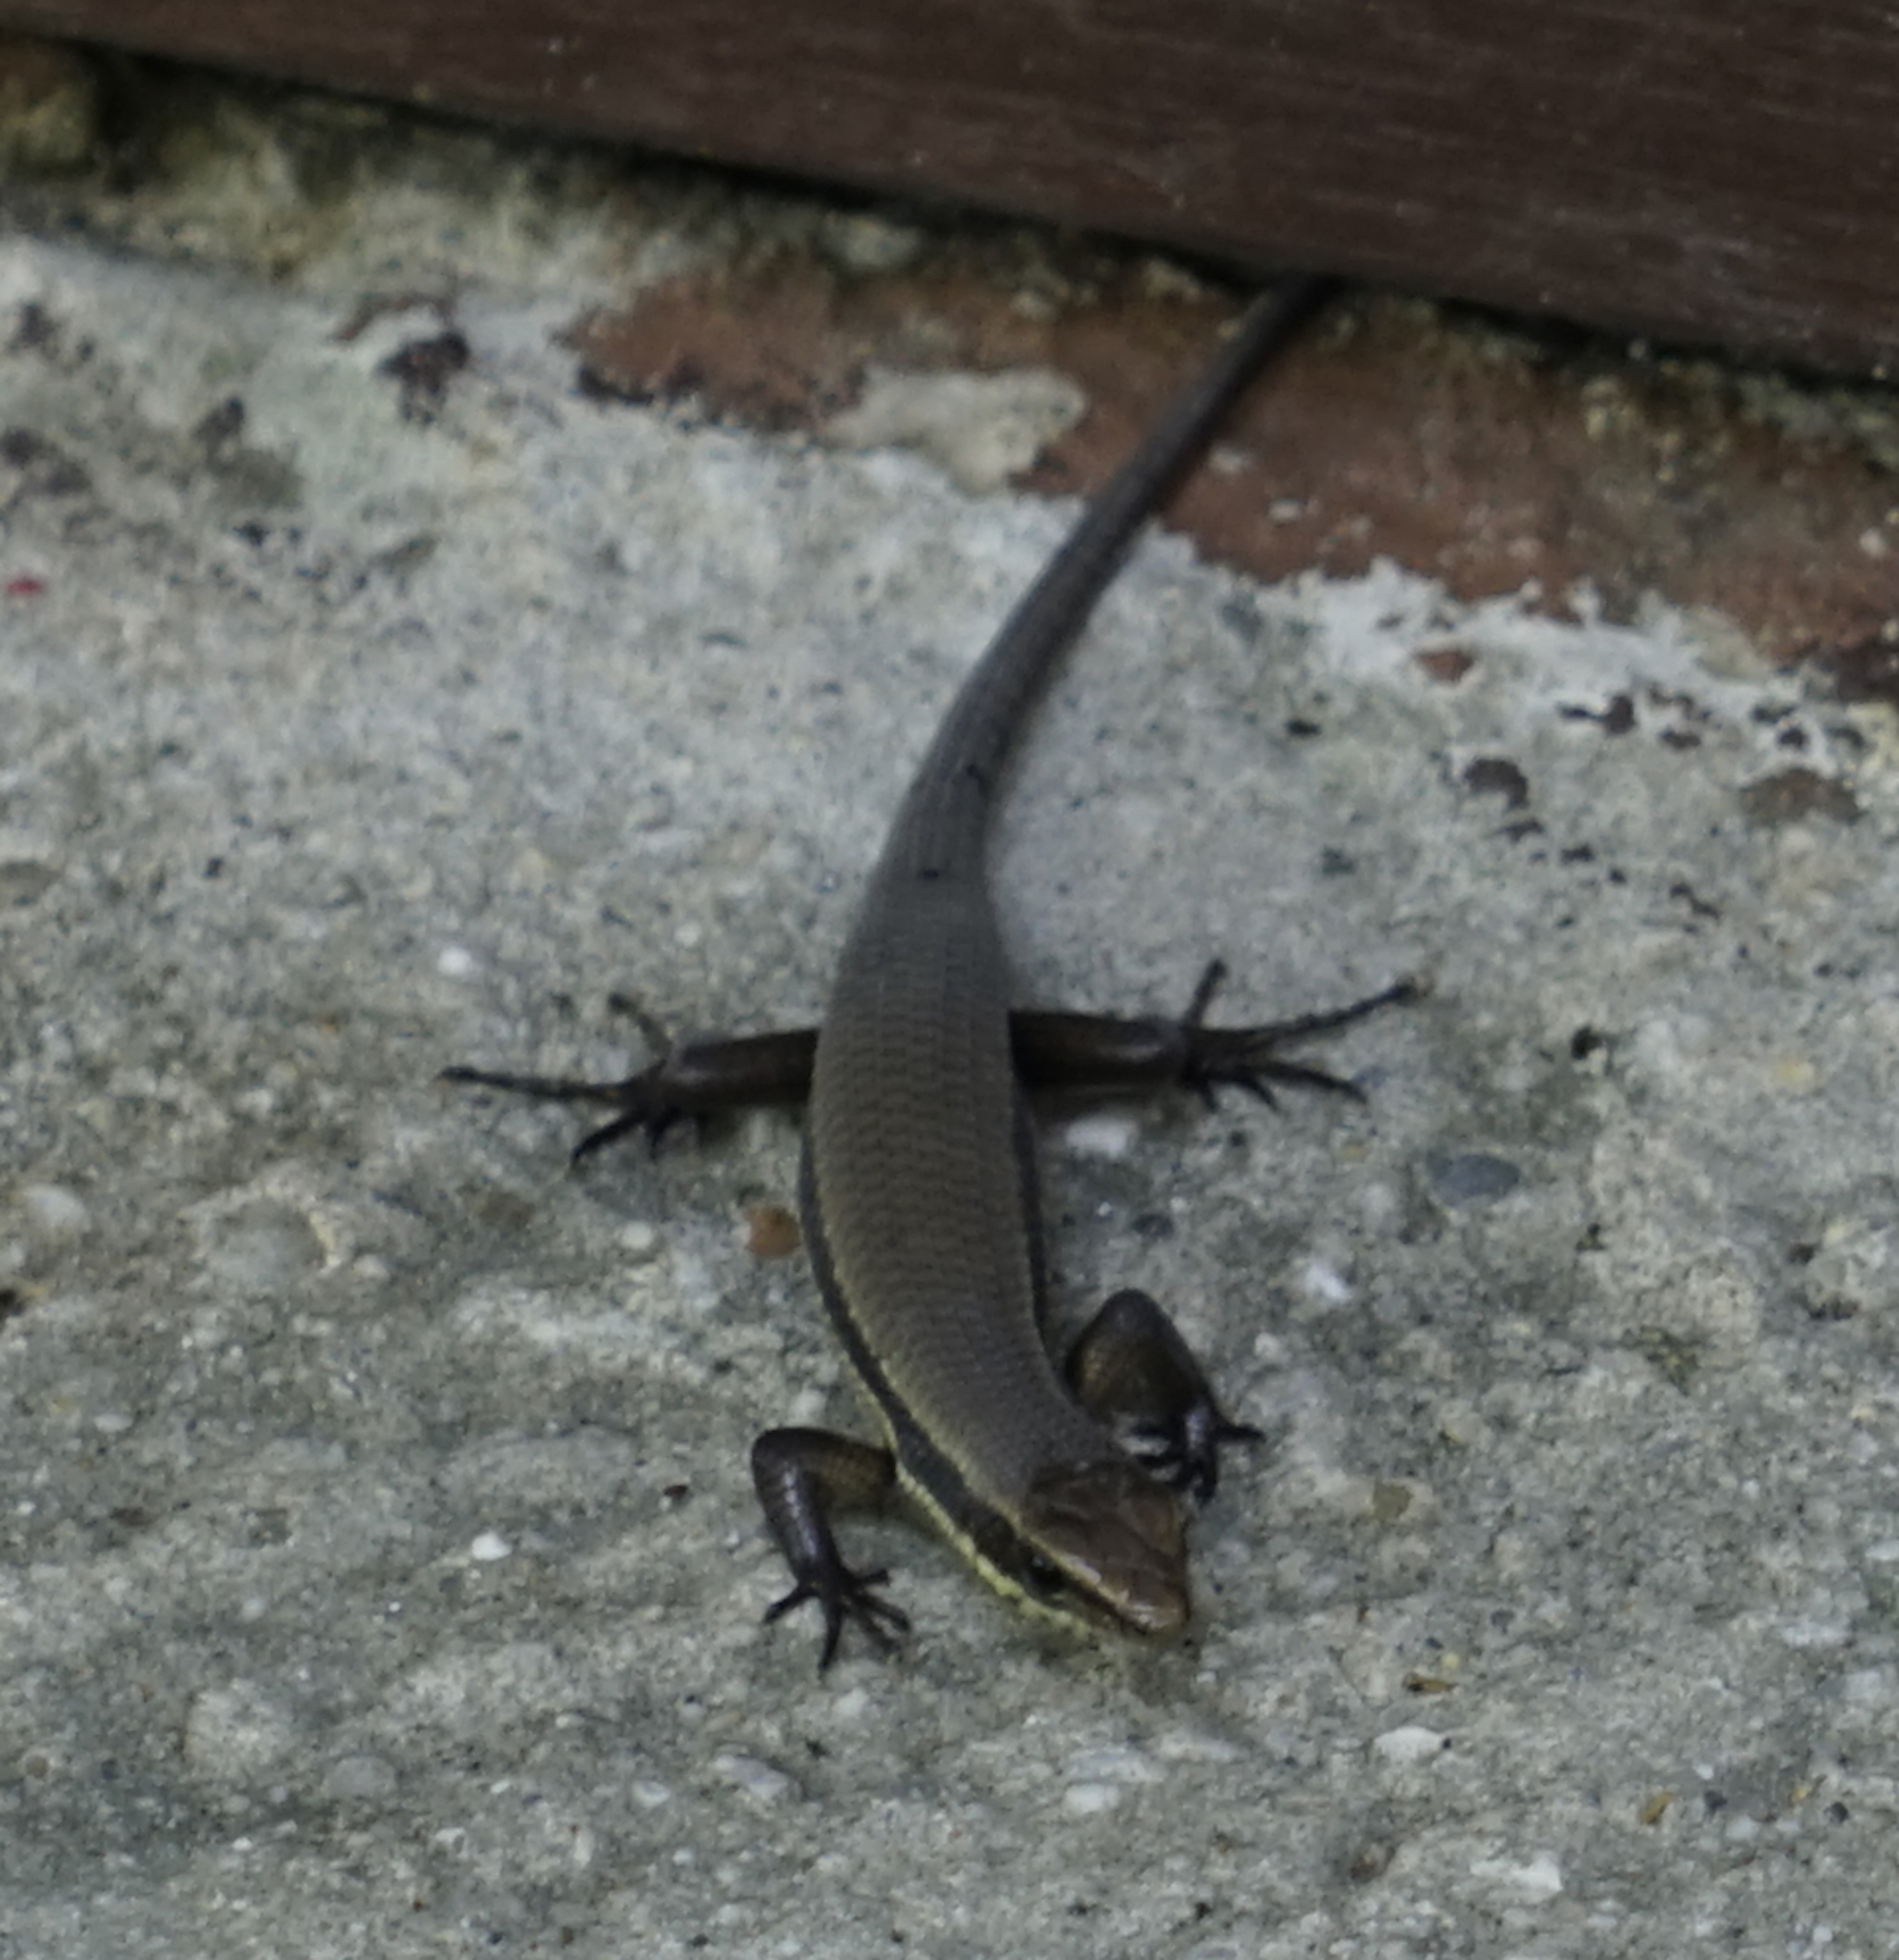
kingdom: Animalia
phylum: Chordata
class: Squamata
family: Scincidae
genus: Eutropis
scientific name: Eutropis rudis
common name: Rough mabuya
